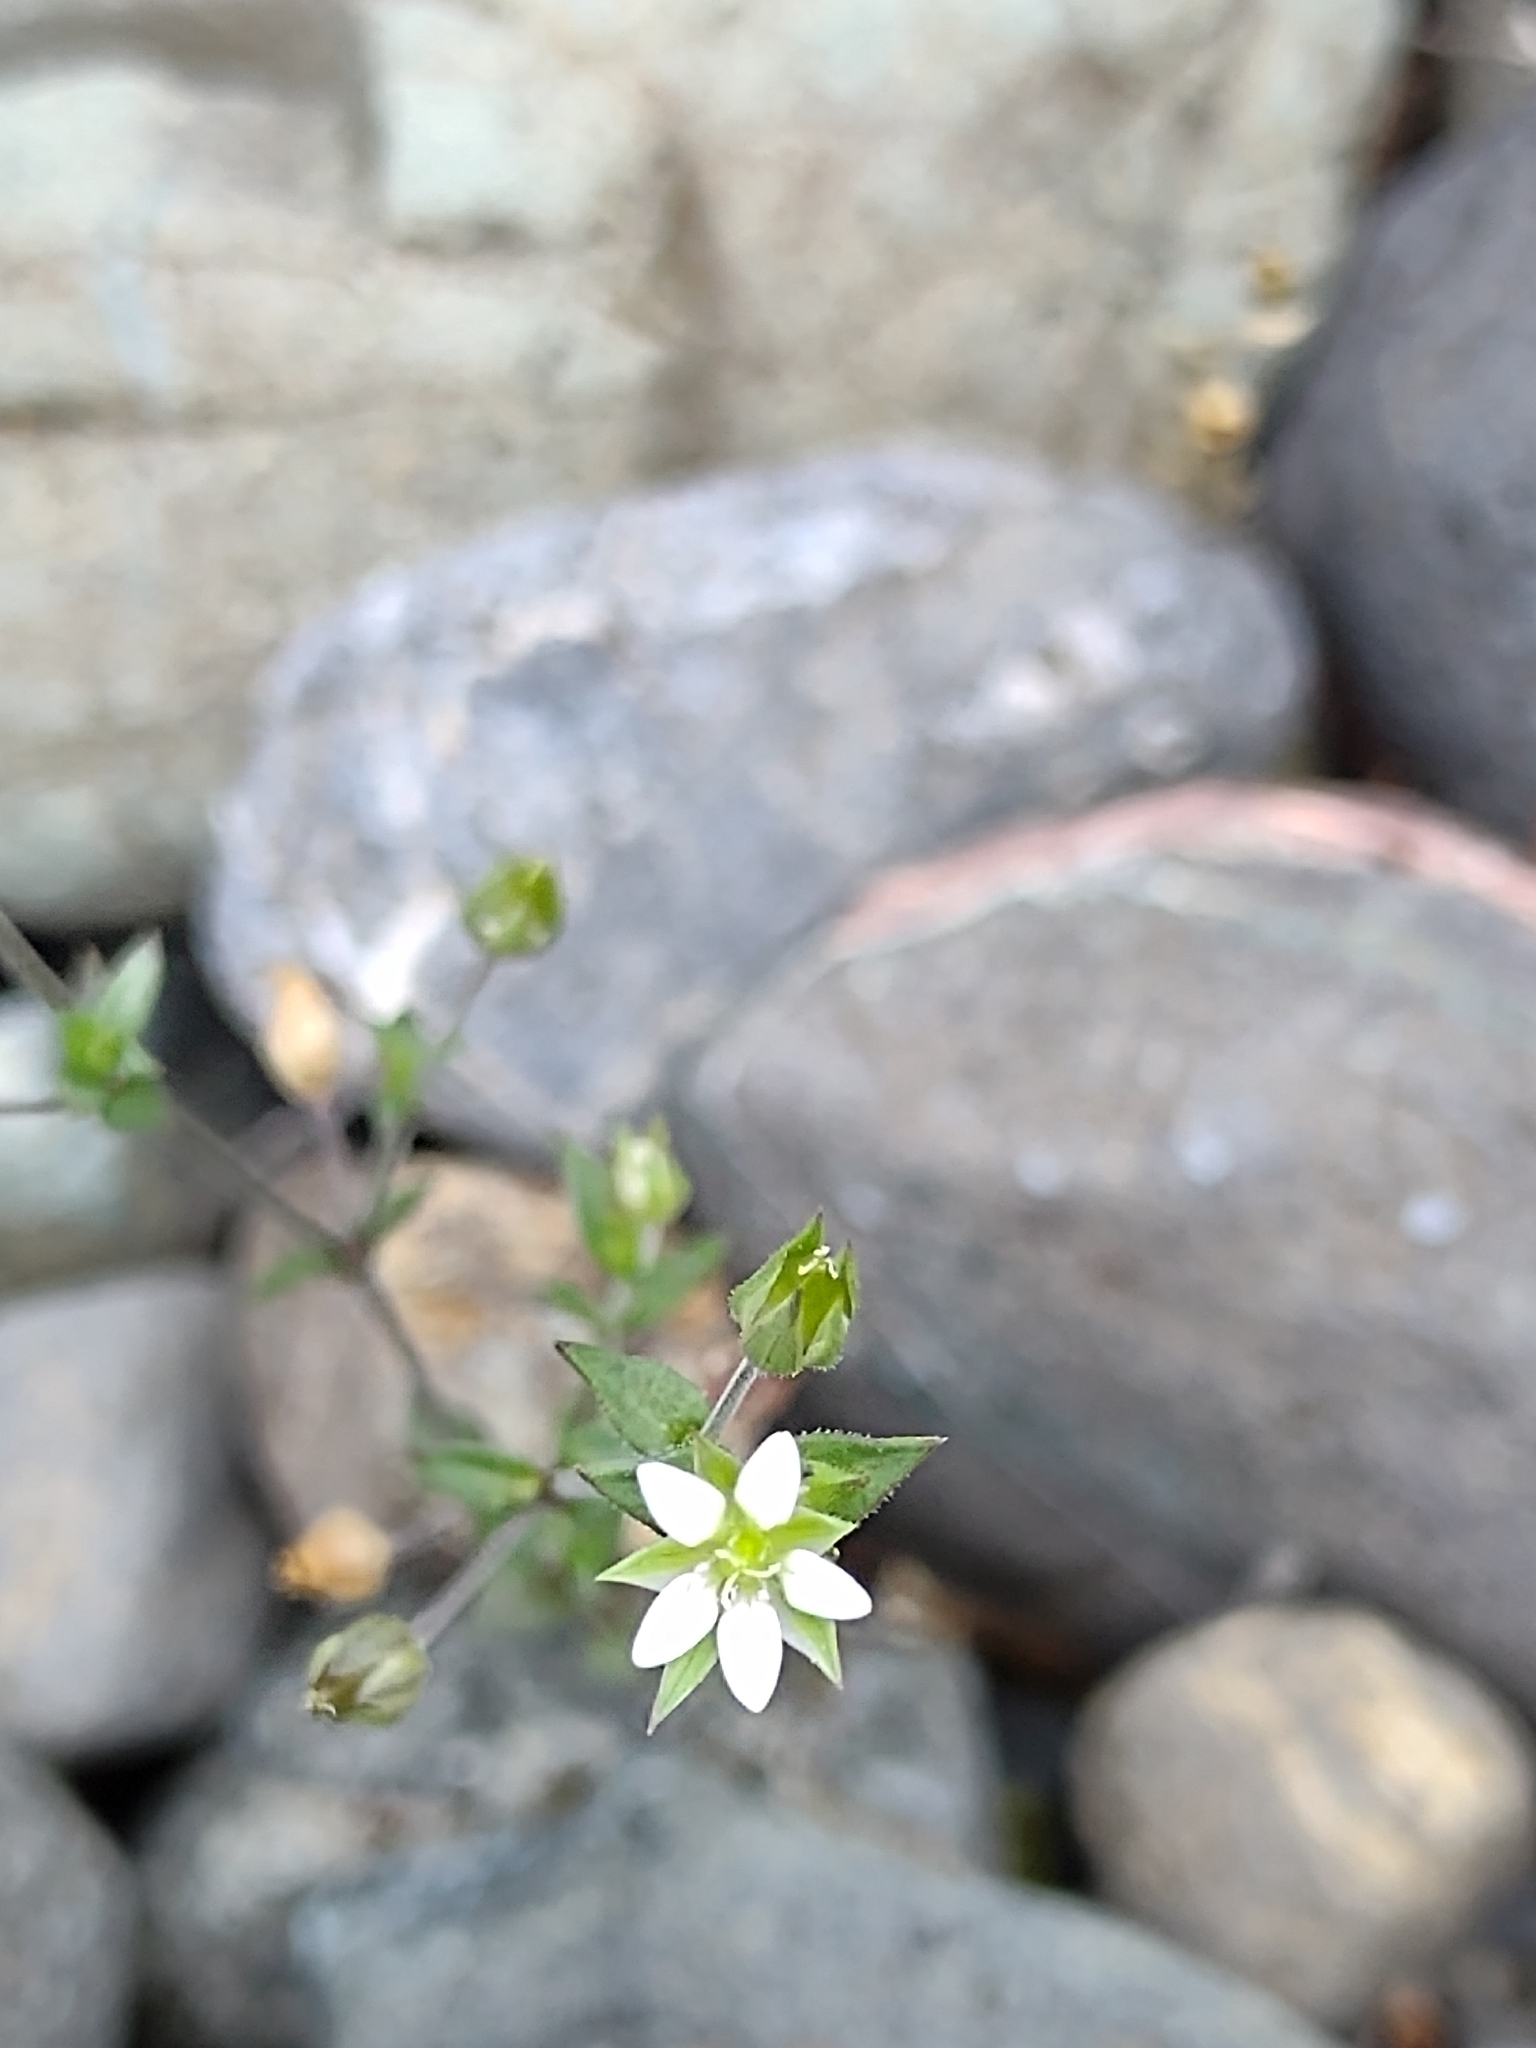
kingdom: Plantae
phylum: Tracheophyta
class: Magnoliopsida
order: Caryophyllales
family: Caryophyllaceae
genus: Arenaria
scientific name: Arenaria serpyllifolia
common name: Thyme-leaved sandwort
